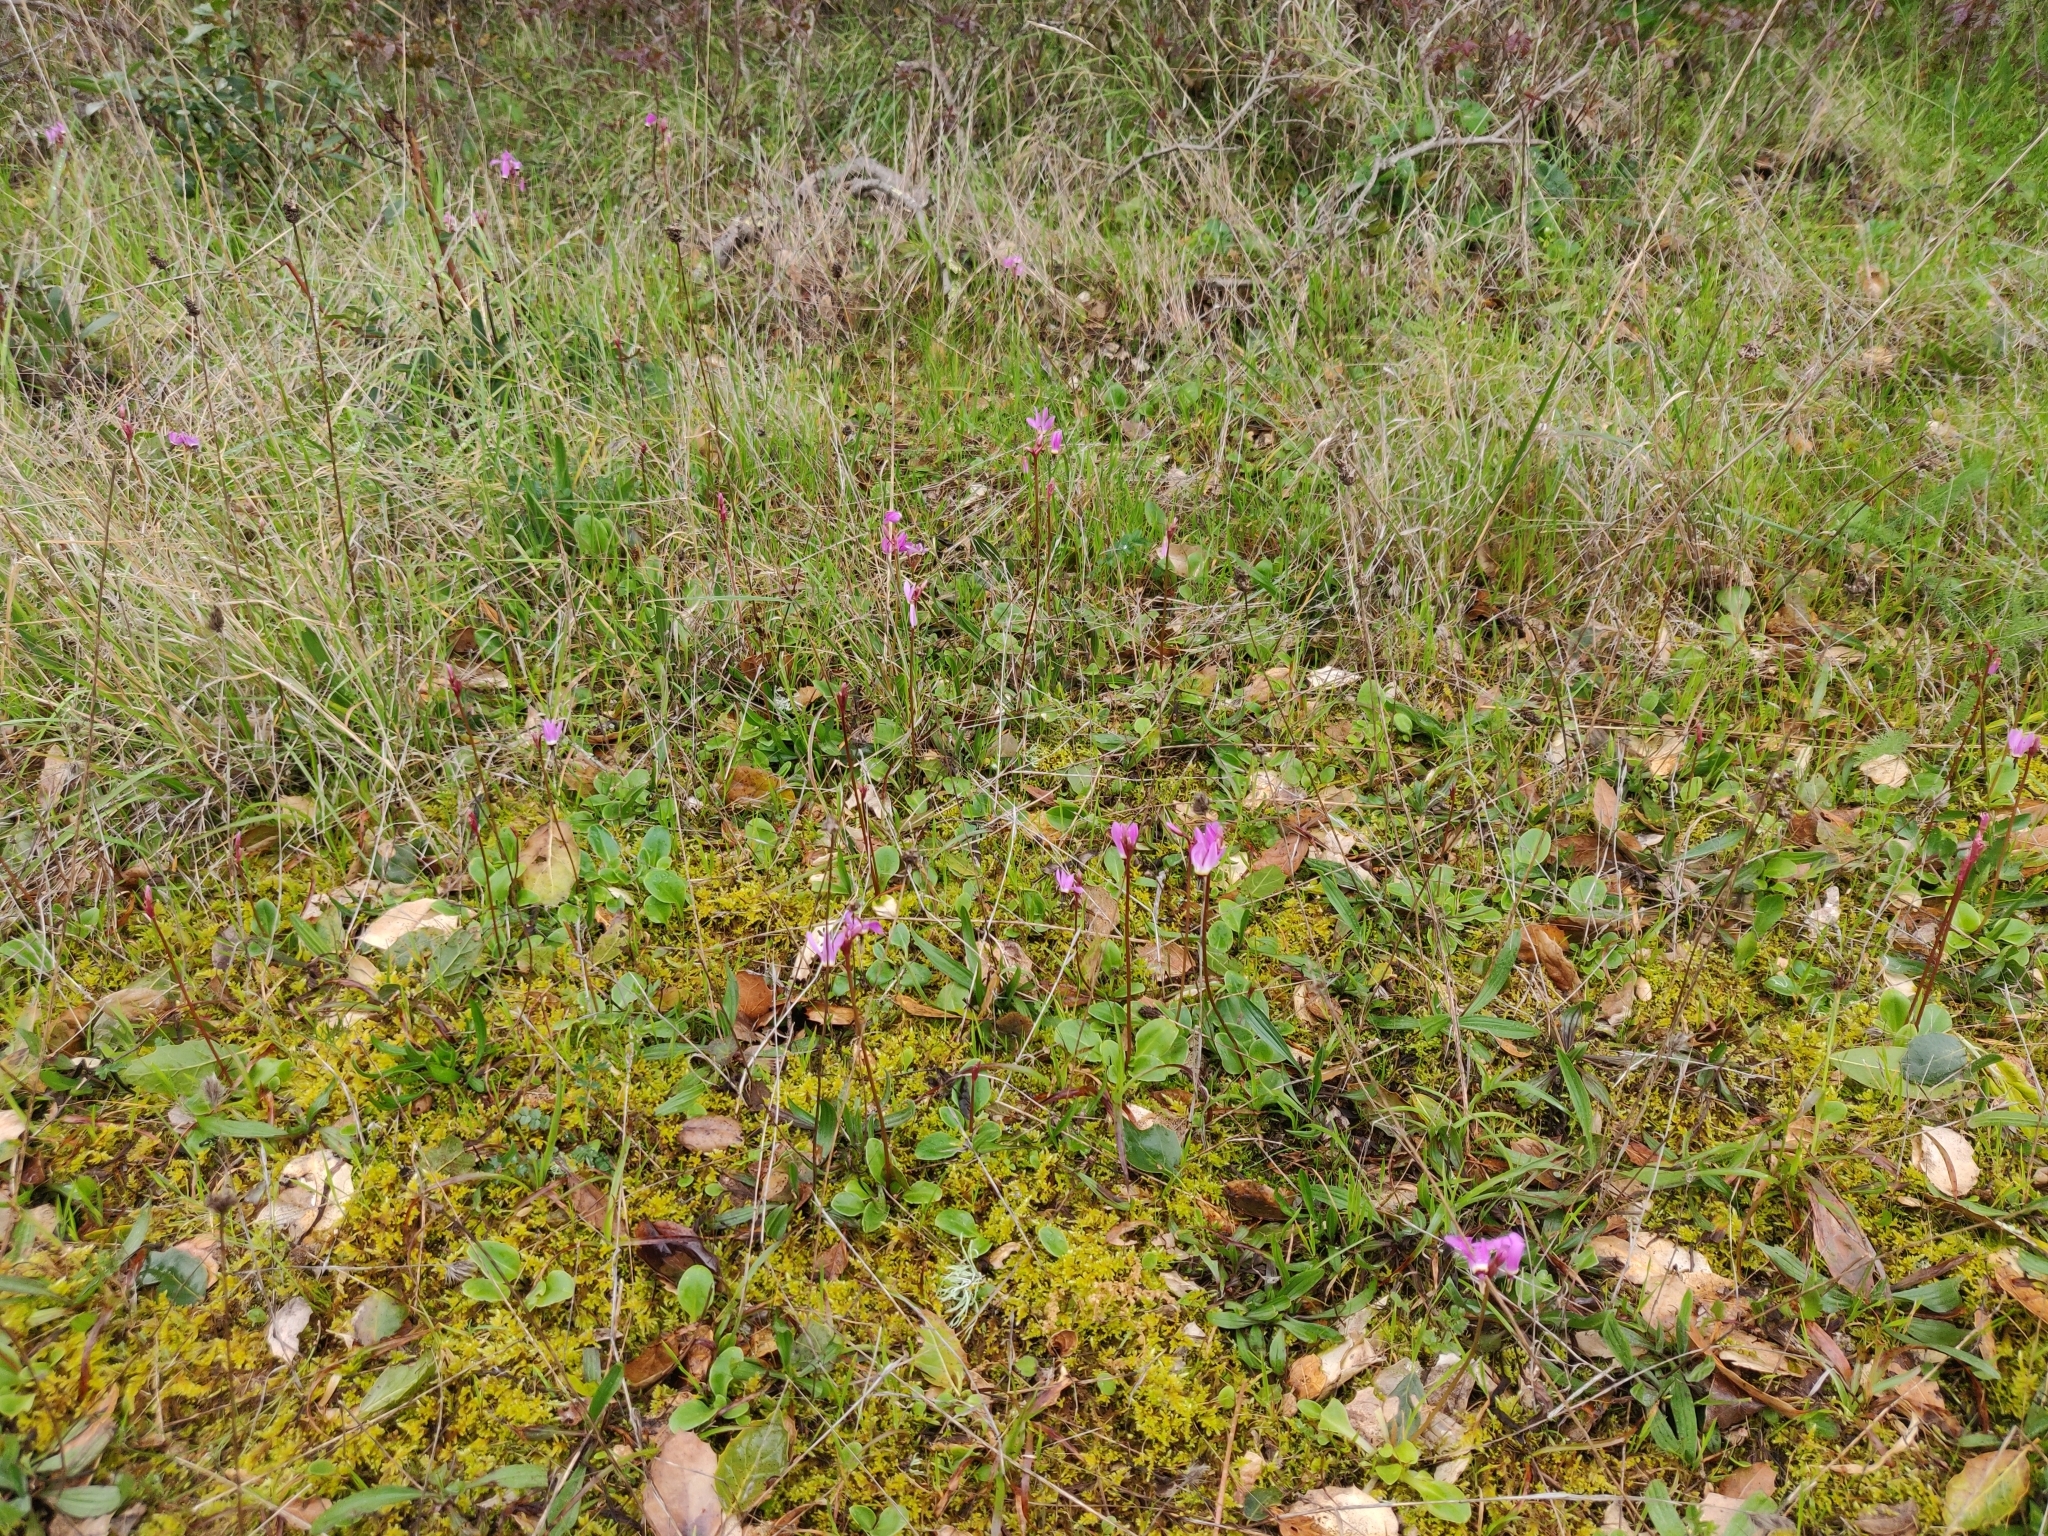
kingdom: Plantae
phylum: Tracheophyta
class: Magnoliopsida
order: Ericales
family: Primulaceae
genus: Dodecatheon
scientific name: Dodecatheon hendersonii
